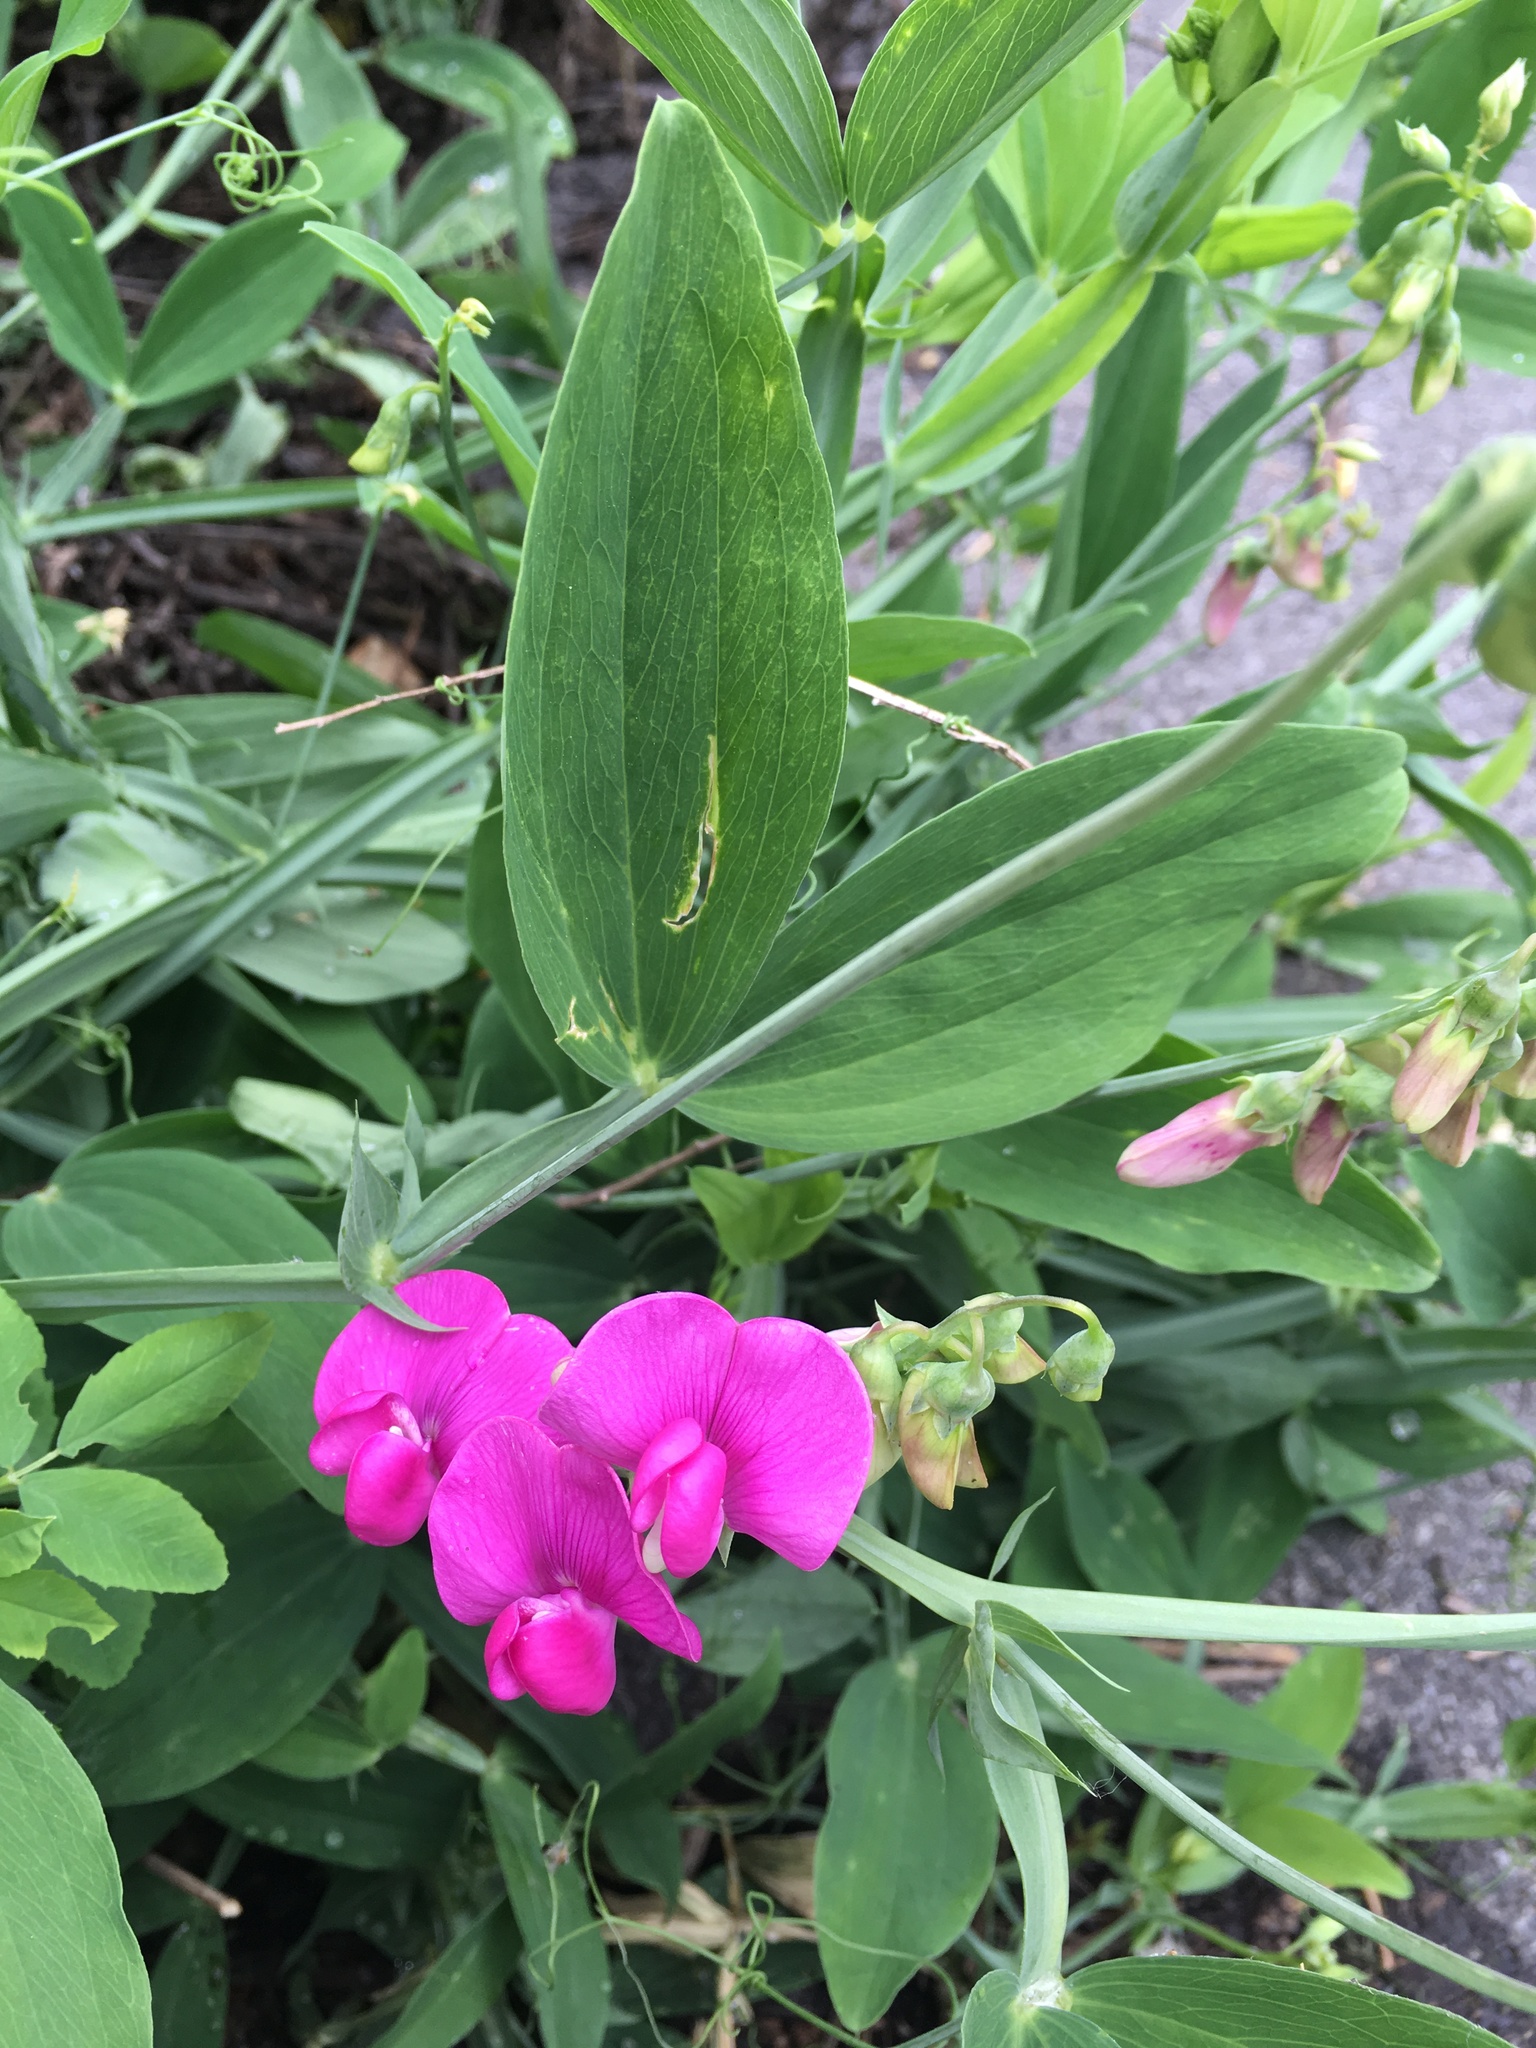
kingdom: Plantae
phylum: Tracheophyta
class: Magnoliopsida
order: Fabales
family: Fabaceae
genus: Lathyrus
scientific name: Lathyrus latifolius
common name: Perennial pea
